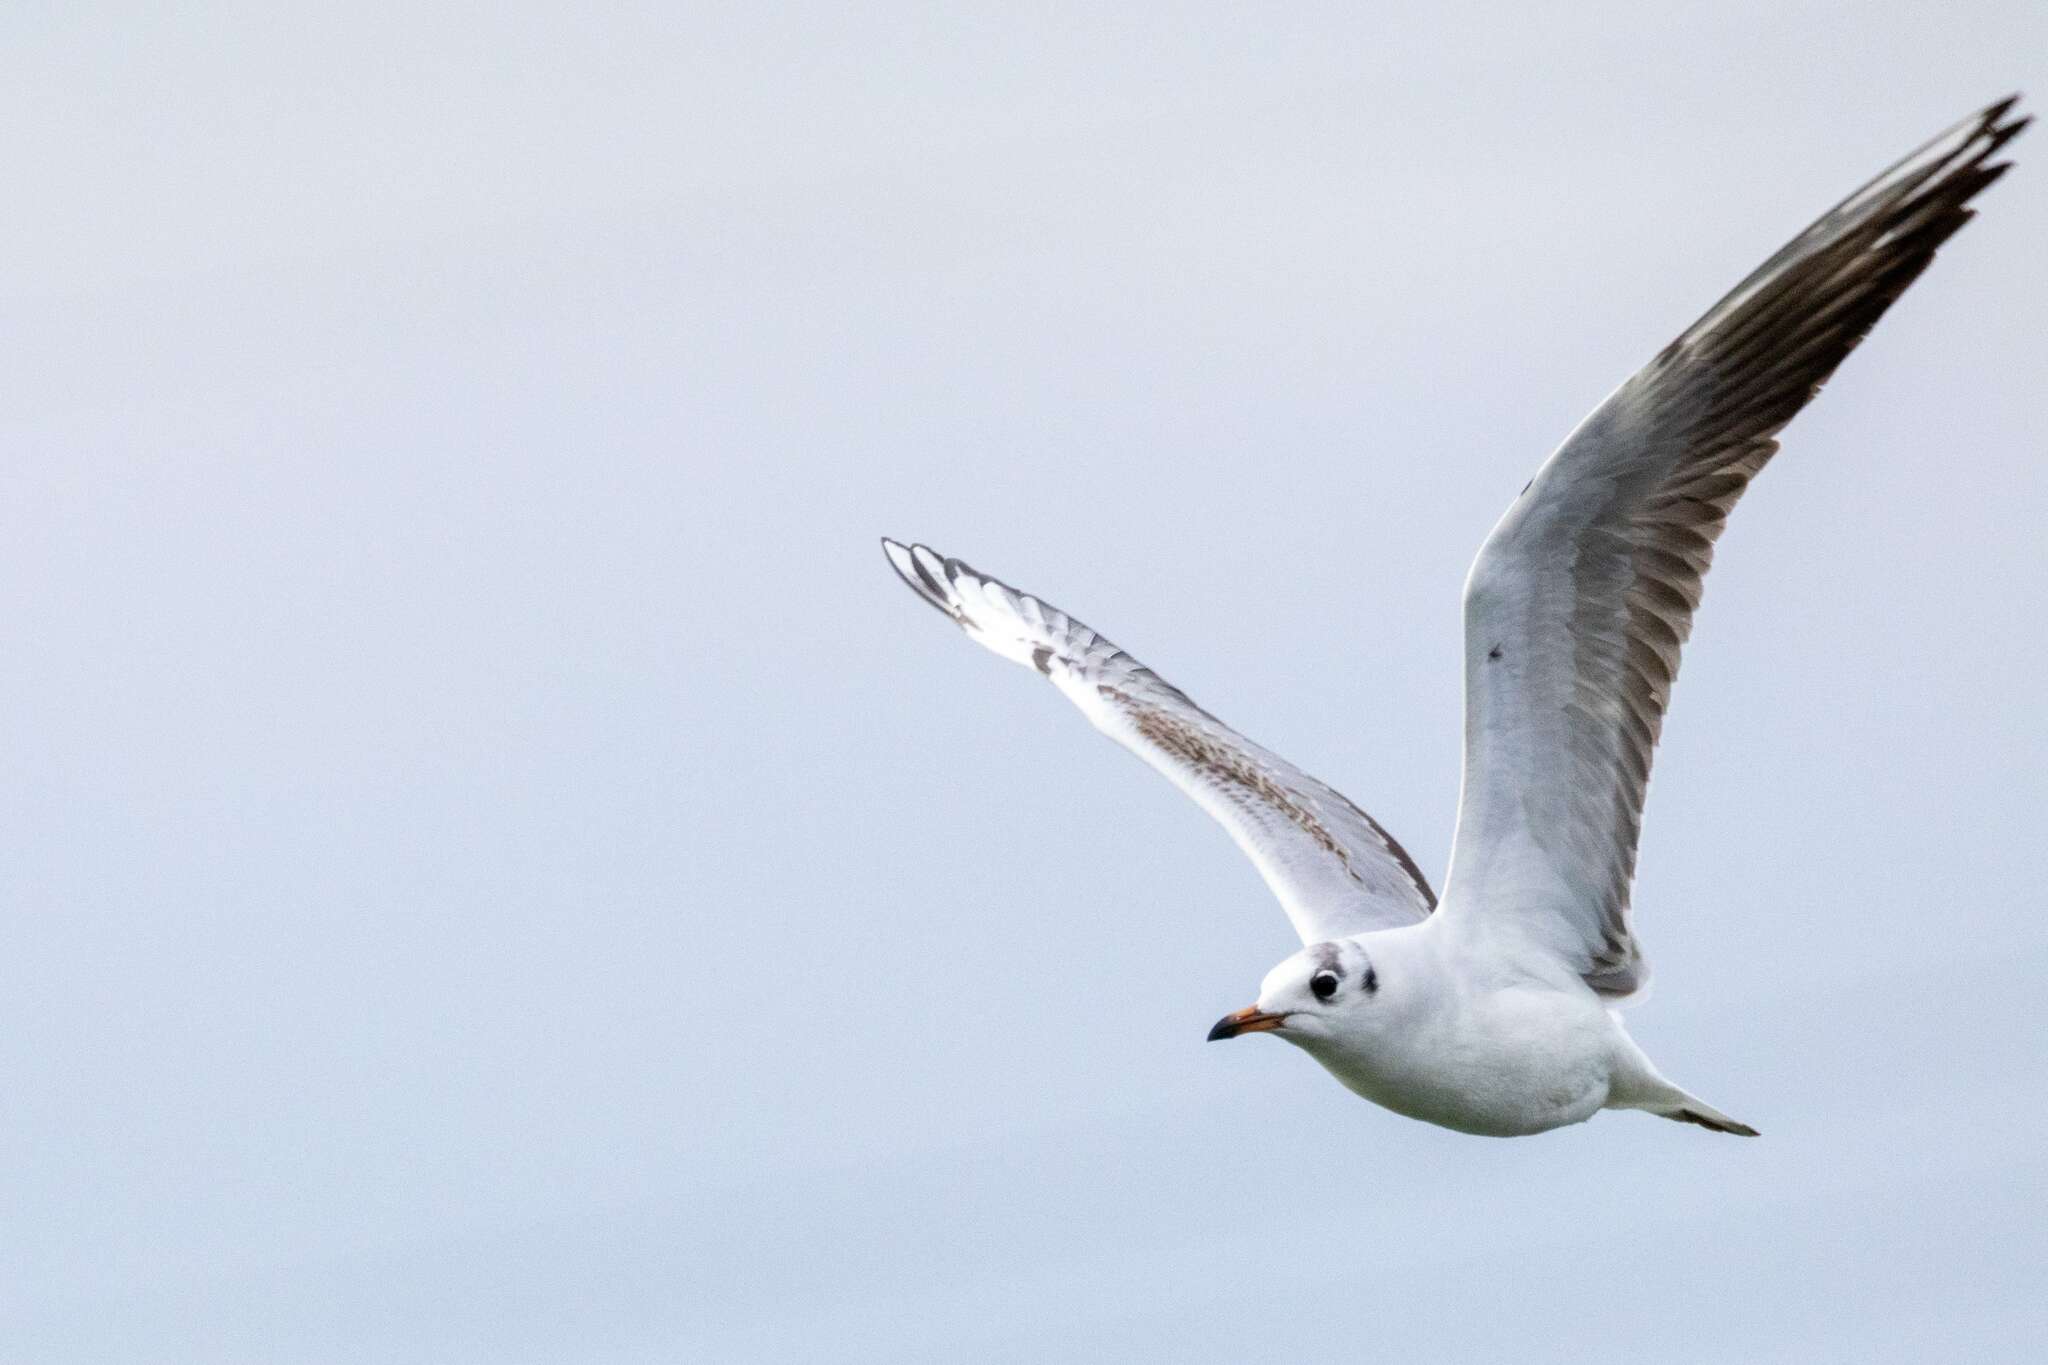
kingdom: Animalia
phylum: Chordata
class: Aves
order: Charadriiformes
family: Laridae
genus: Chroicocephalus
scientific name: Chroicocephalus ridibundus
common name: Black-headed gull
